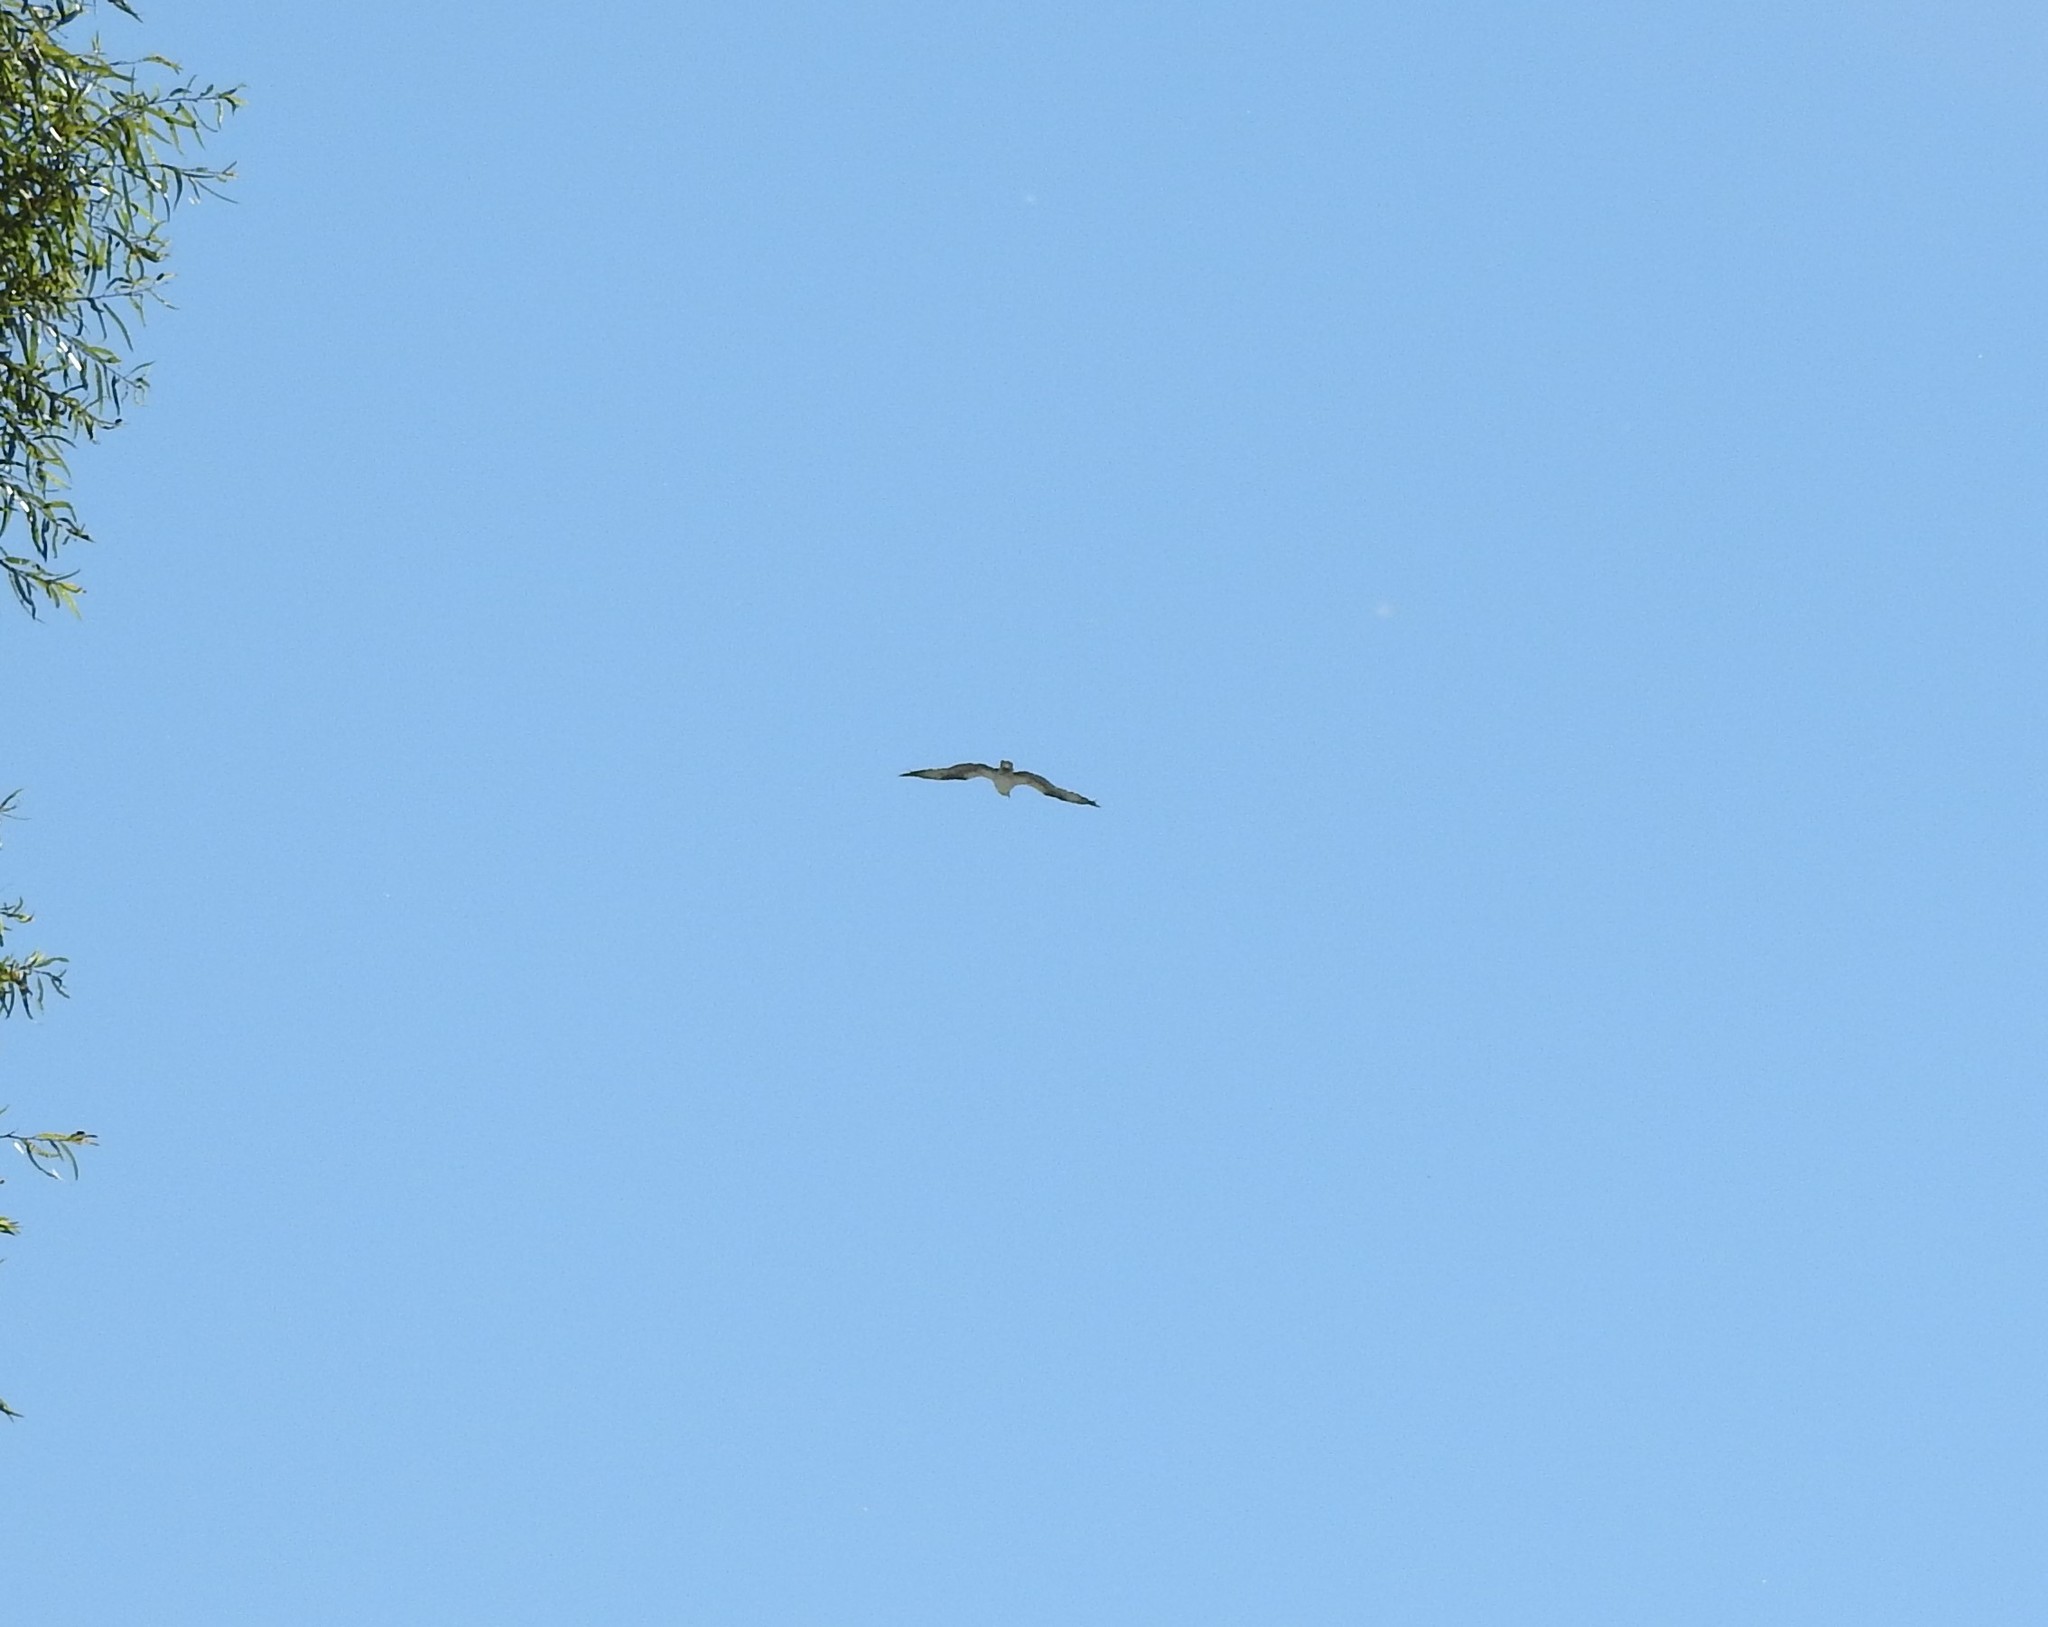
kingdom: Animalia
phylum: Chordata
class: Aves
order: Accipitriformes
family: Pandionidae
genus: Pandion
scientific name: Pandion haliaetus
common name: Osprey
